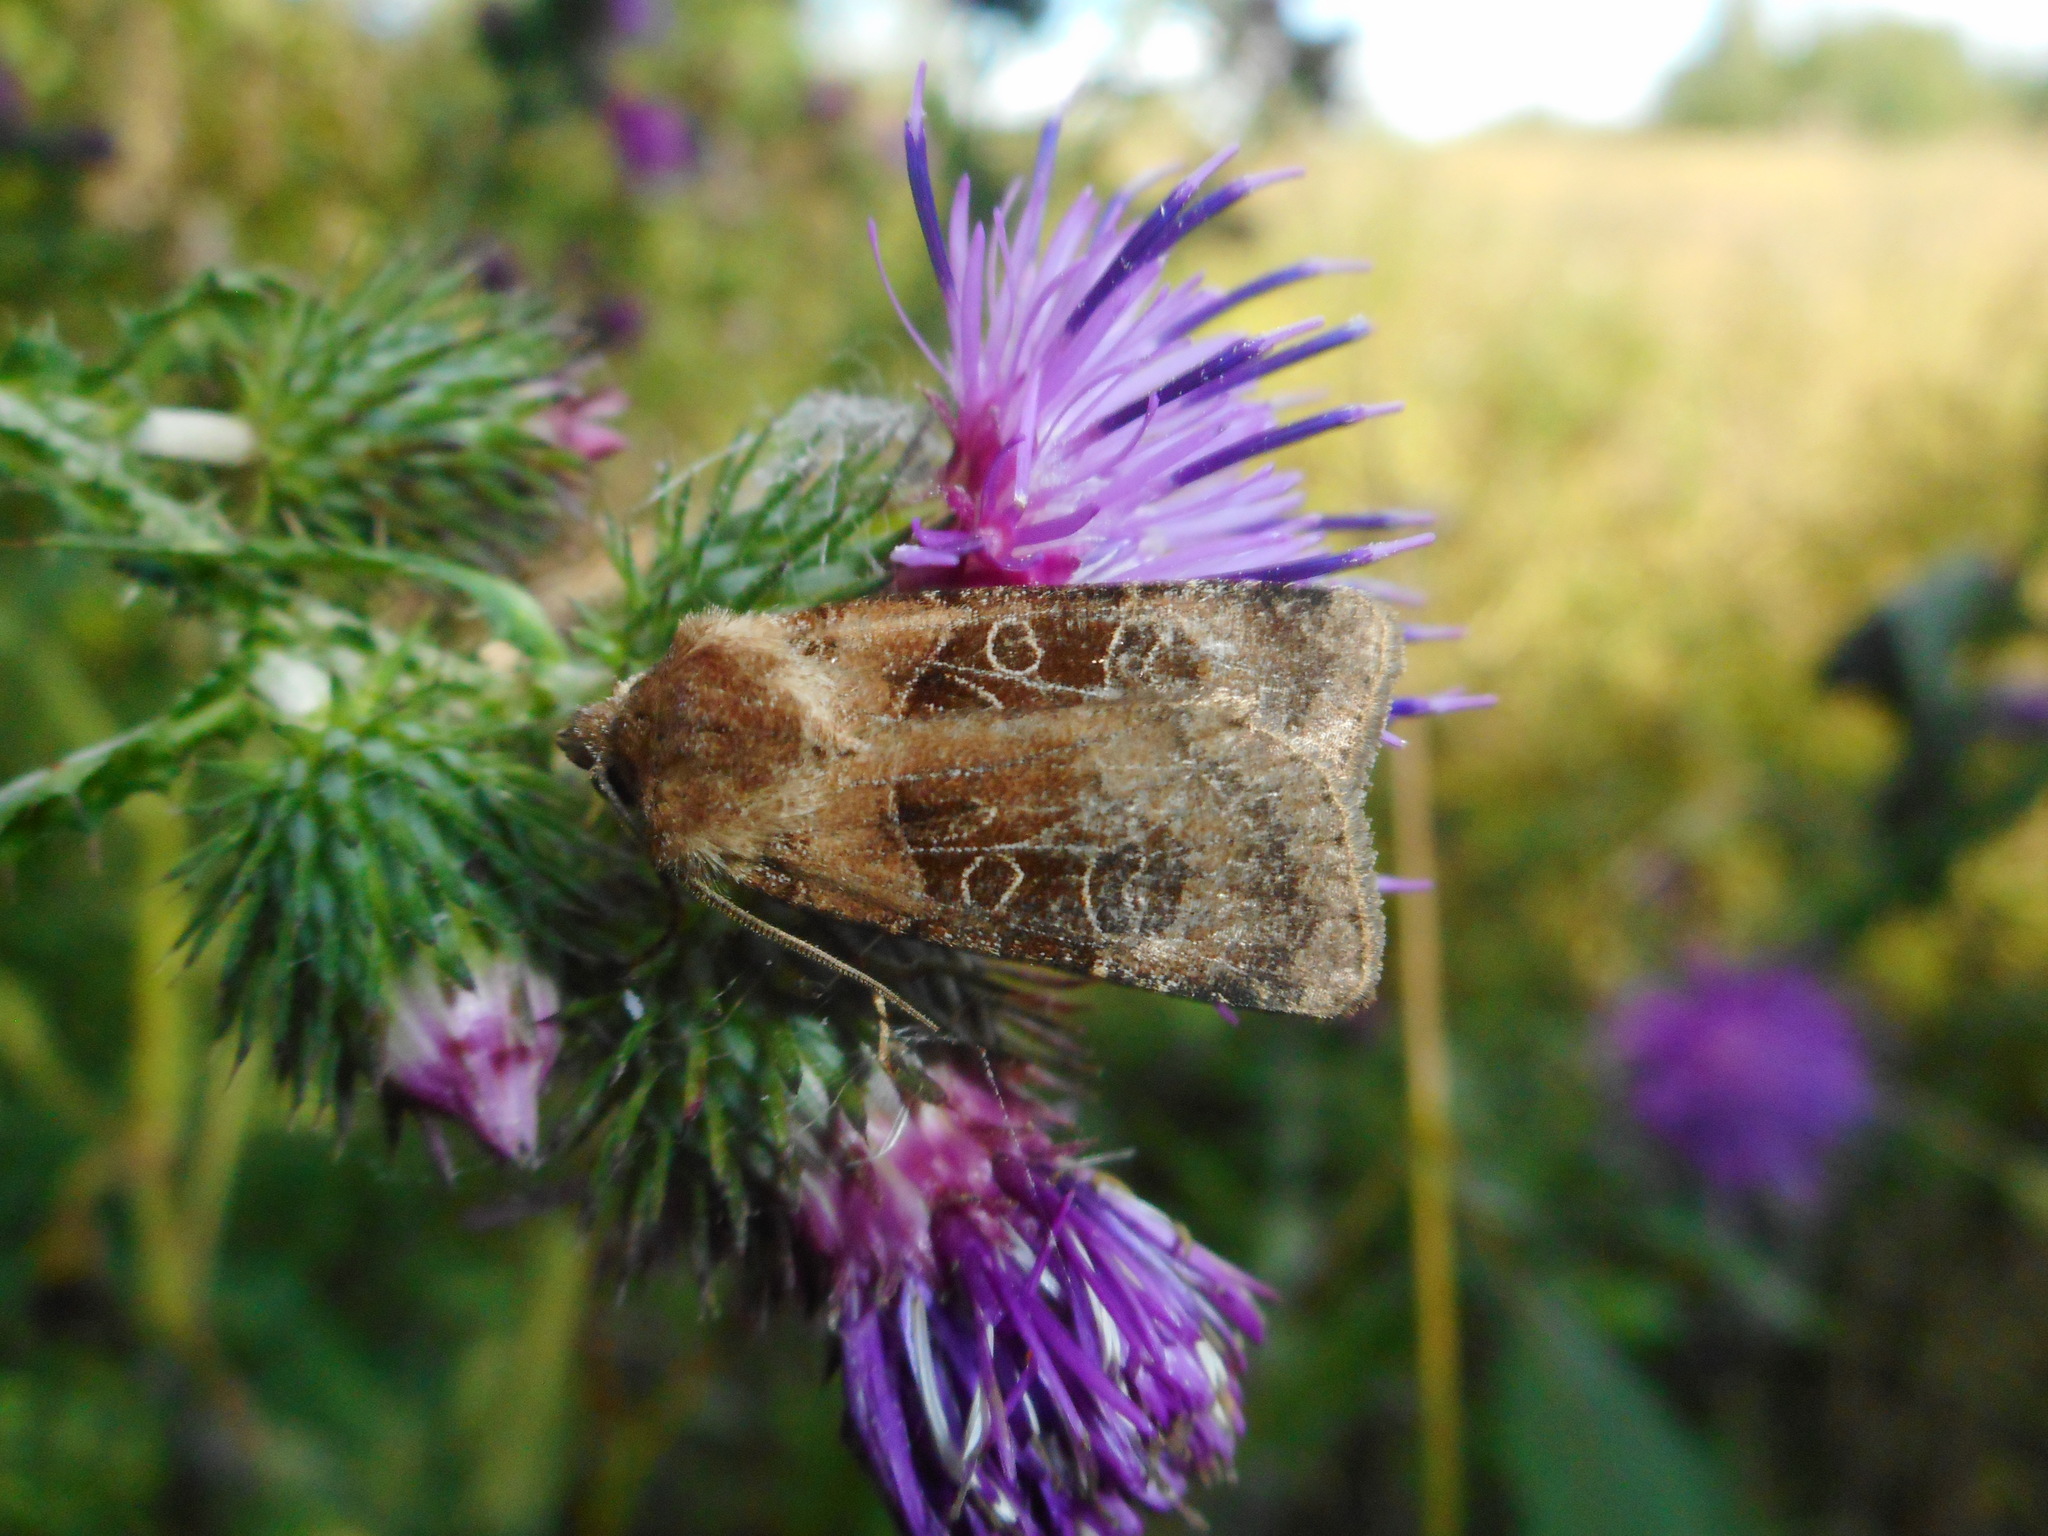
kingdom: Animalia
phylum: Arthropoda
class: Insecta
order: Lepidoptera
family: Noctuidae
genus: Chersotis
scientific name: Chersotis cuprea
